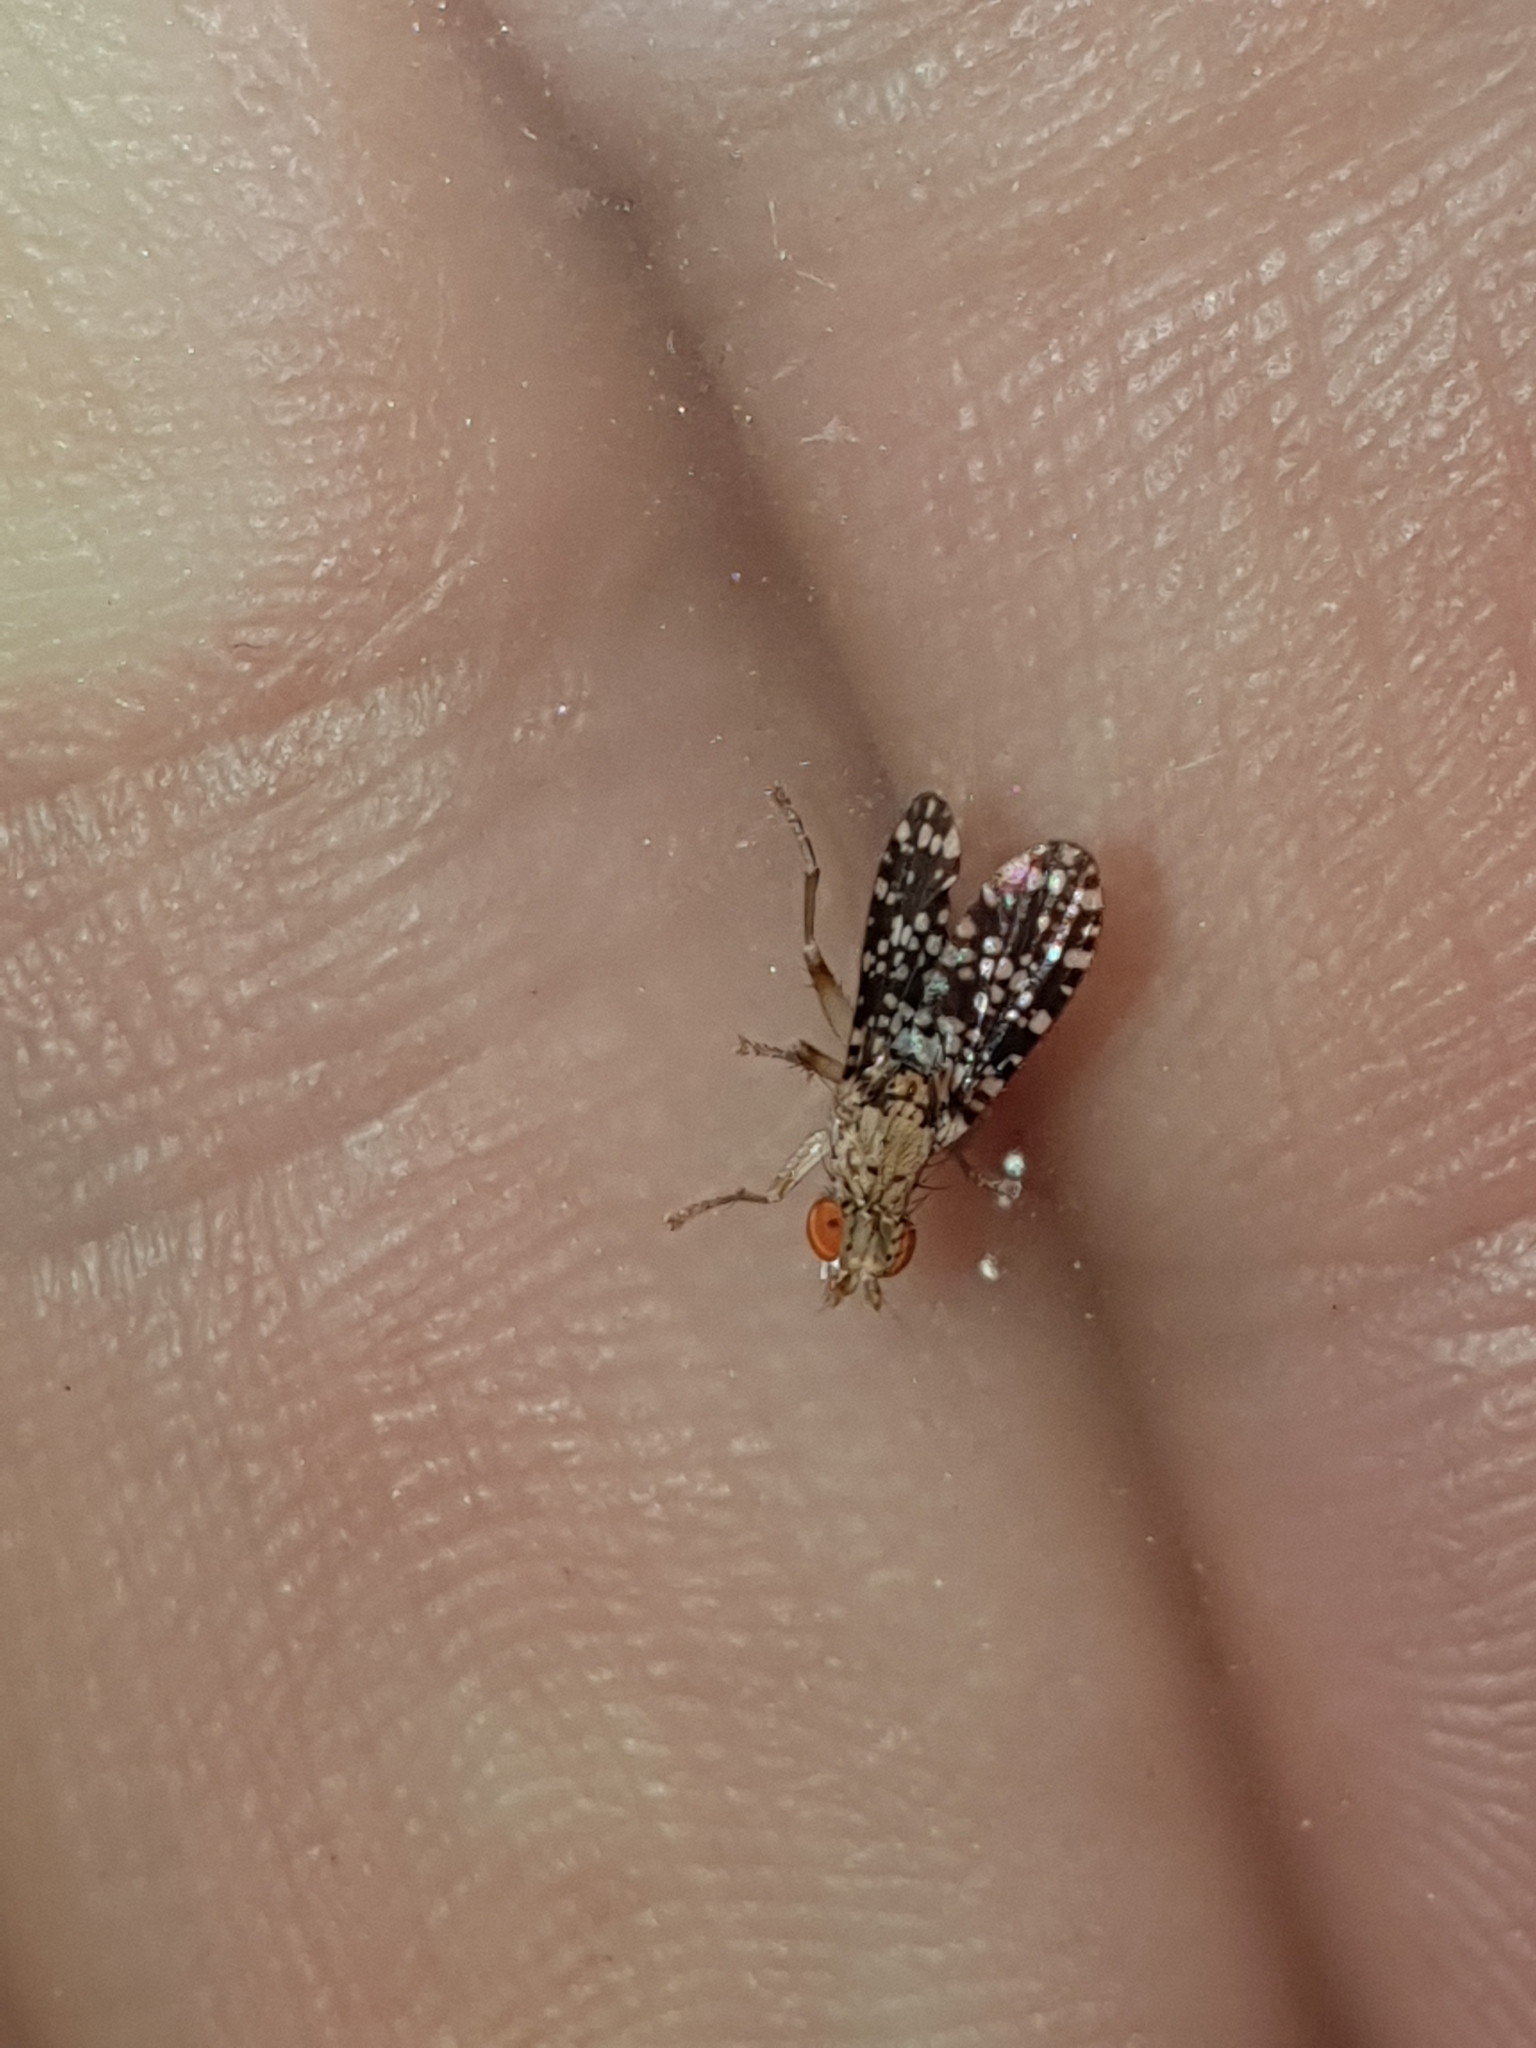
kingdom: Animalia
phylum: Arthropoda
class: Insecta
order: Diptera
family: Sciomyzidae
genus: Trypetoptera
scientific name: Trypetoptera punctulata
